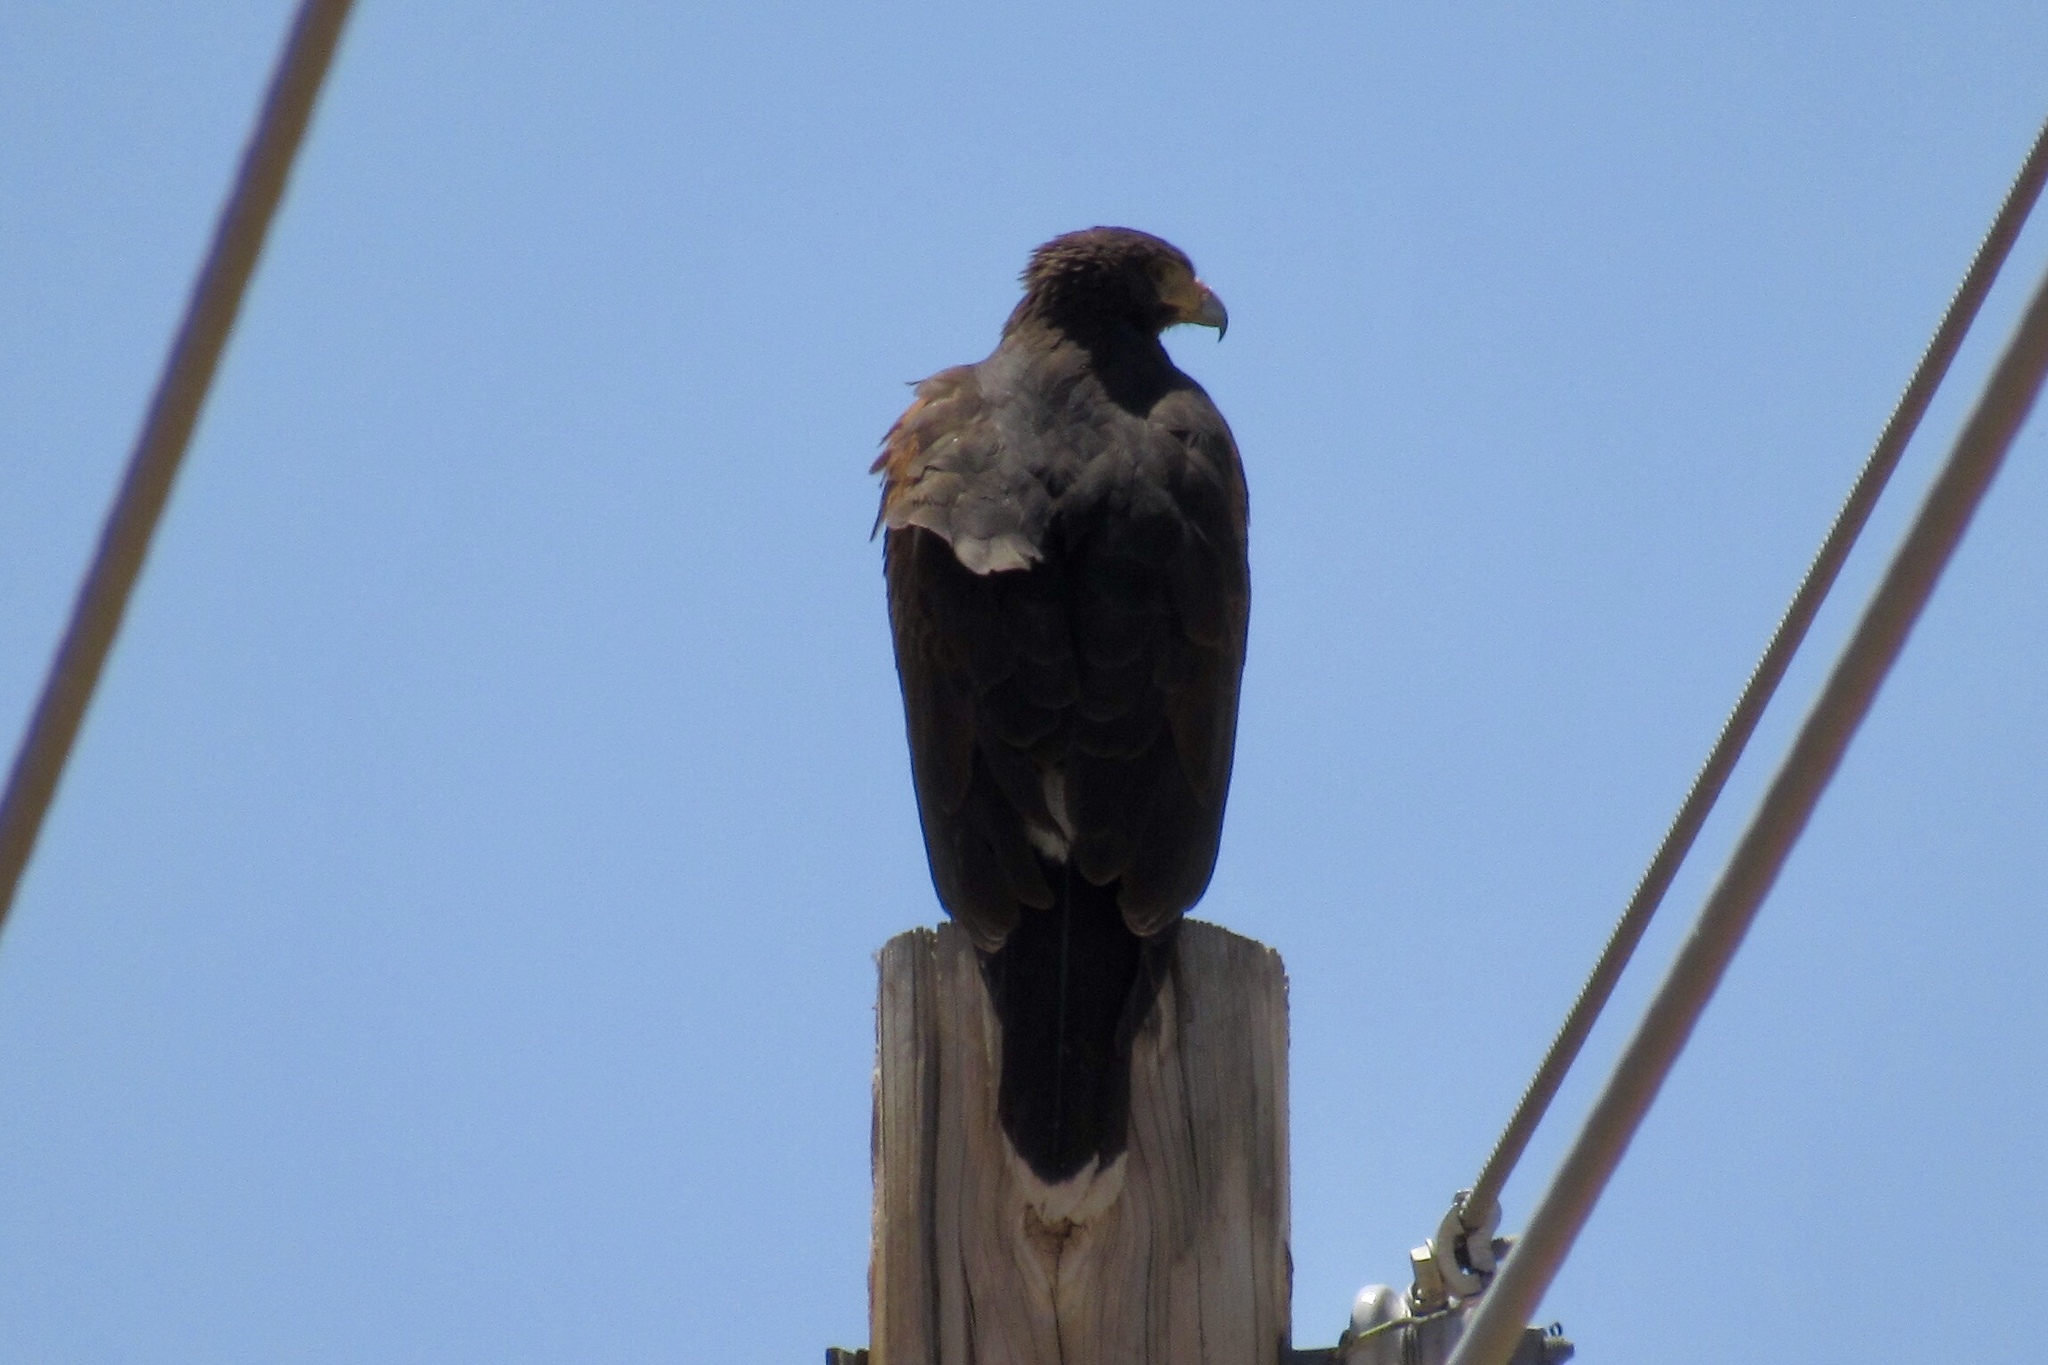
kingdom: Animalia
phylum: Chordata
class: Aves
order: Accipitriformes
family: Accipitridae
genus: Parabuteo
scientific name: Parabuteo unicinctus
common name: Harris's hawk
